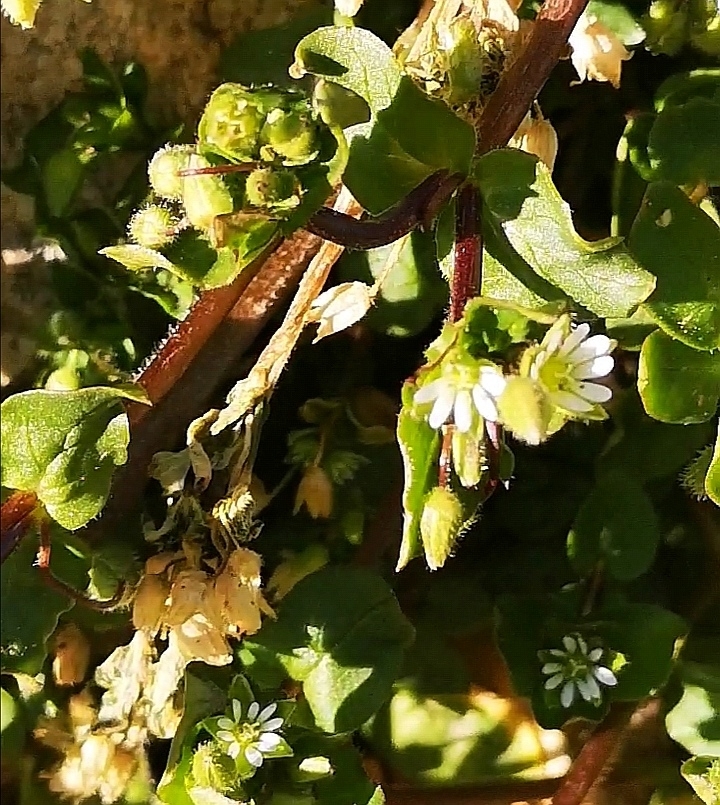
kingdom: Plantae
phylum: Tracheophyta
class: Magnoliopsida
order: Caryophyllales
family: Caryophyllaceae
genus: Stellaria
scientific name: Stellaria media
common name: Common chickweed
